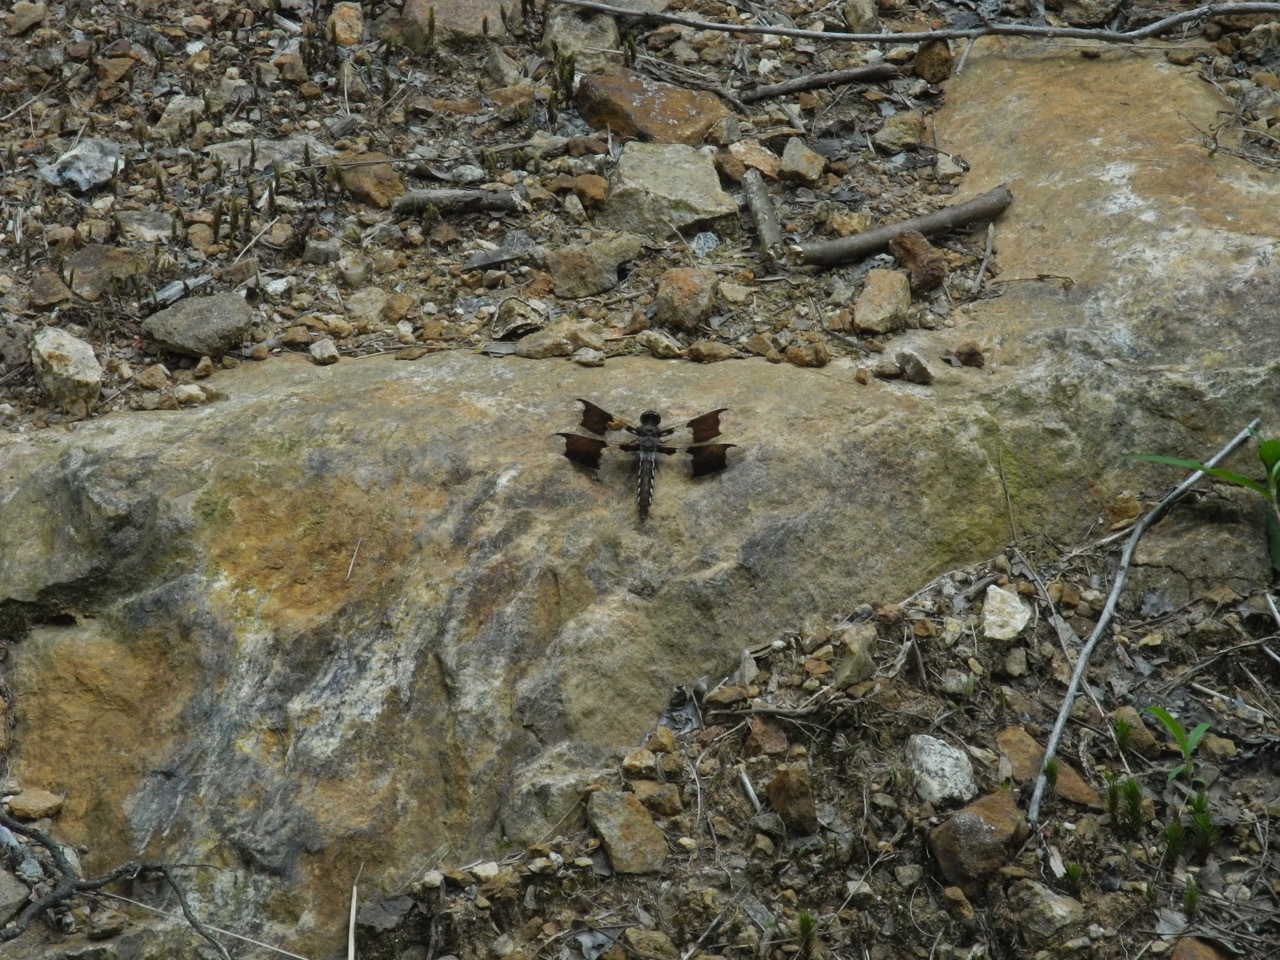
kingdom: Animalia
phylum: Arthropoda
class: Insecta
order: Odonata
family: Libellulidae
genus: Plathemis
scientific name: Plathemis lydia
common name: Common whitetail
